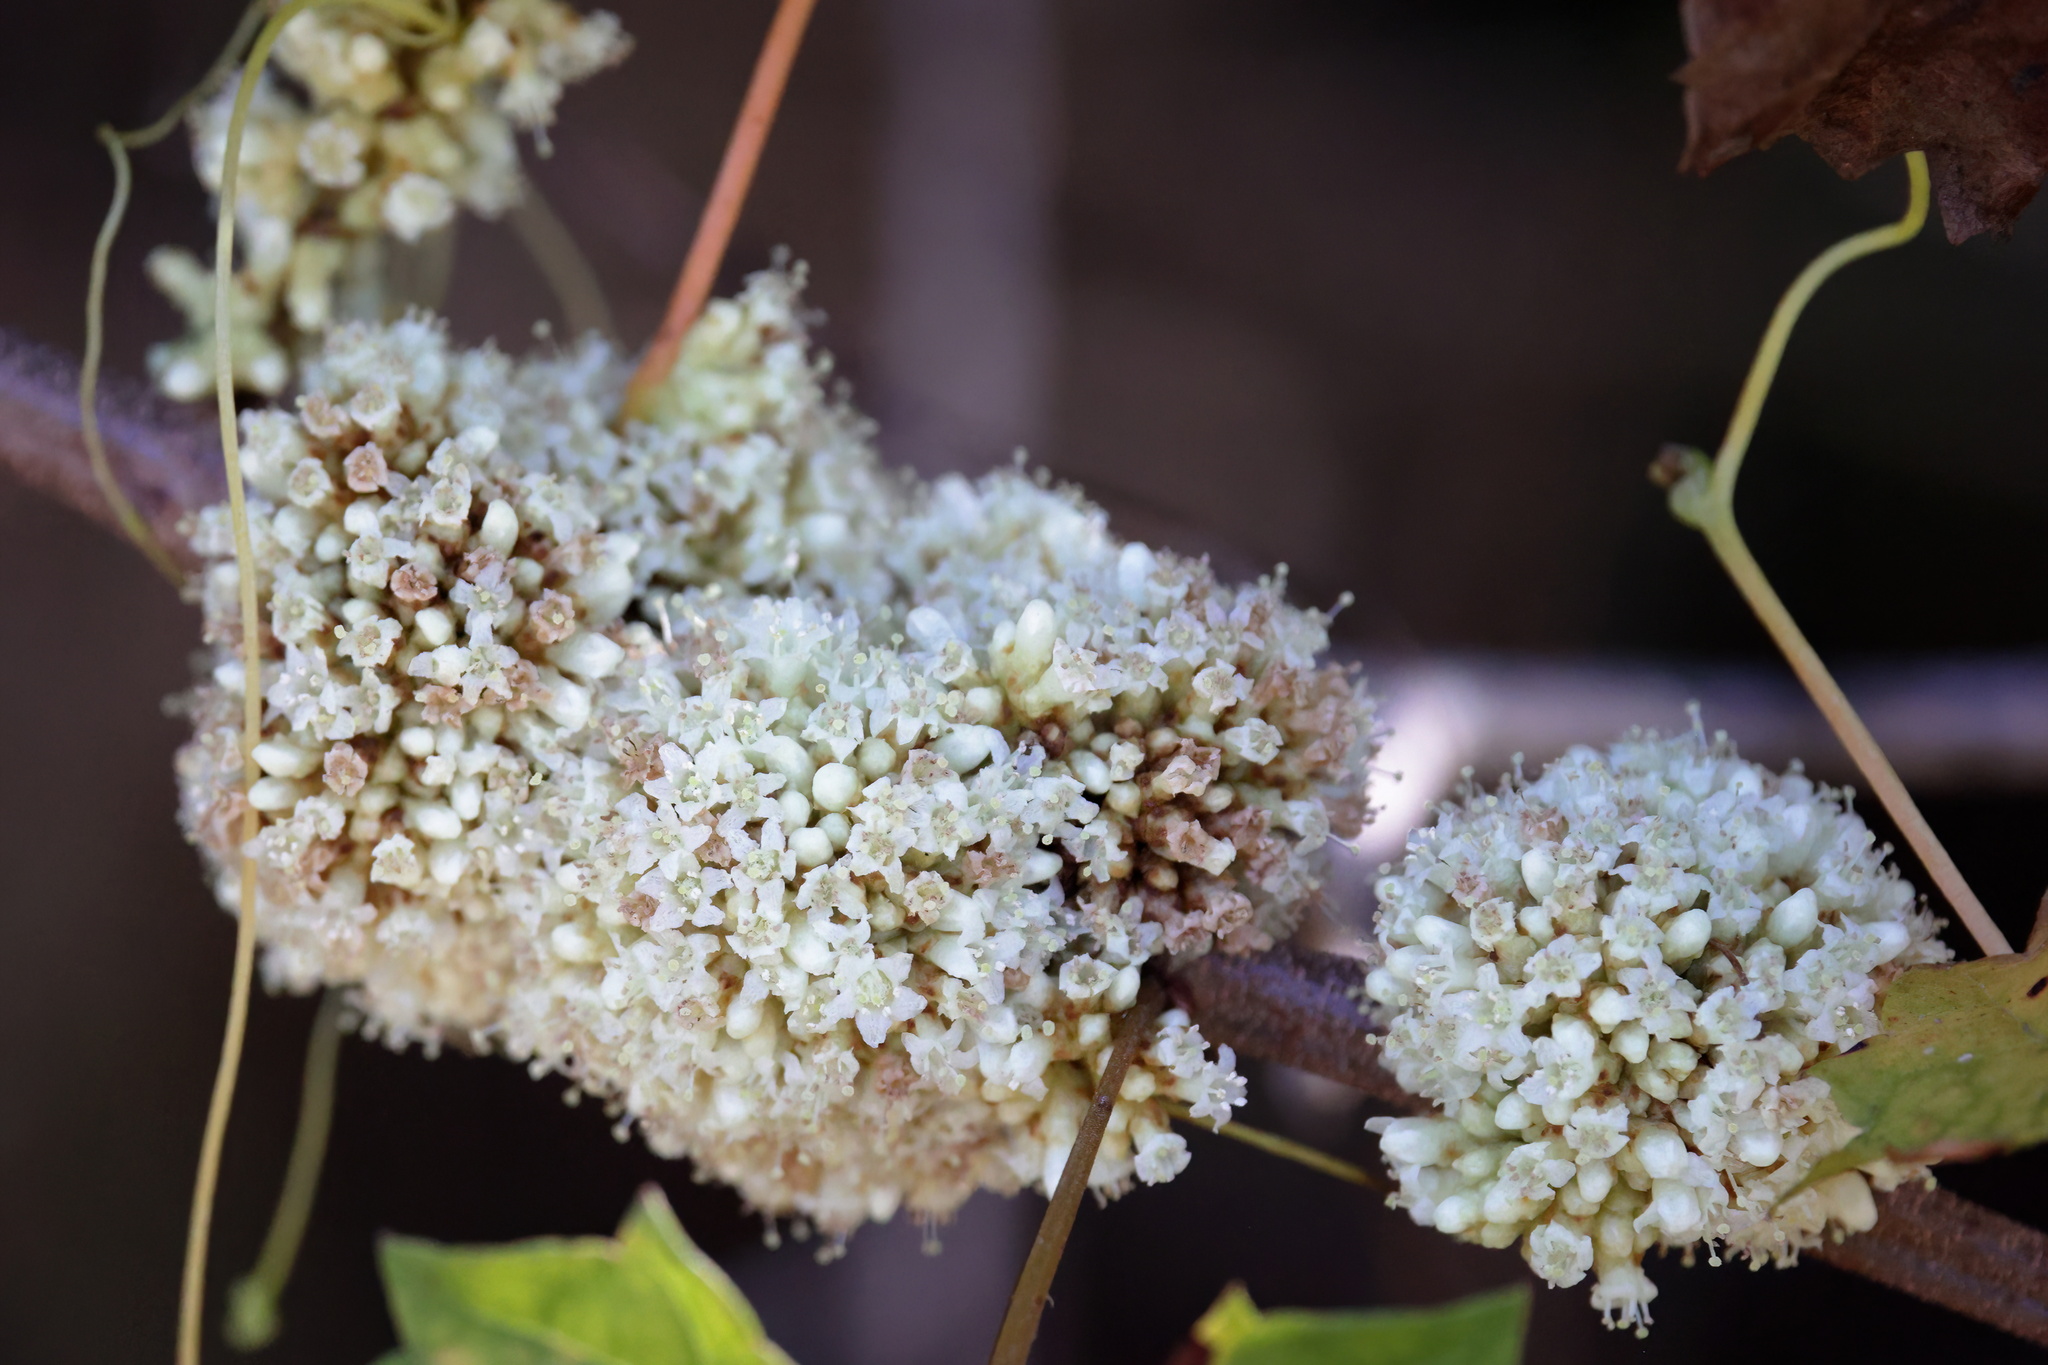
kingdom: Plantae
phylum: Tracheophyta
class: Magnoliopsida
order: Solanales
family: Convolvulaceae
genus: Cuscuta
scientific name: Cuscuta compacta
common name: Compact dodder
